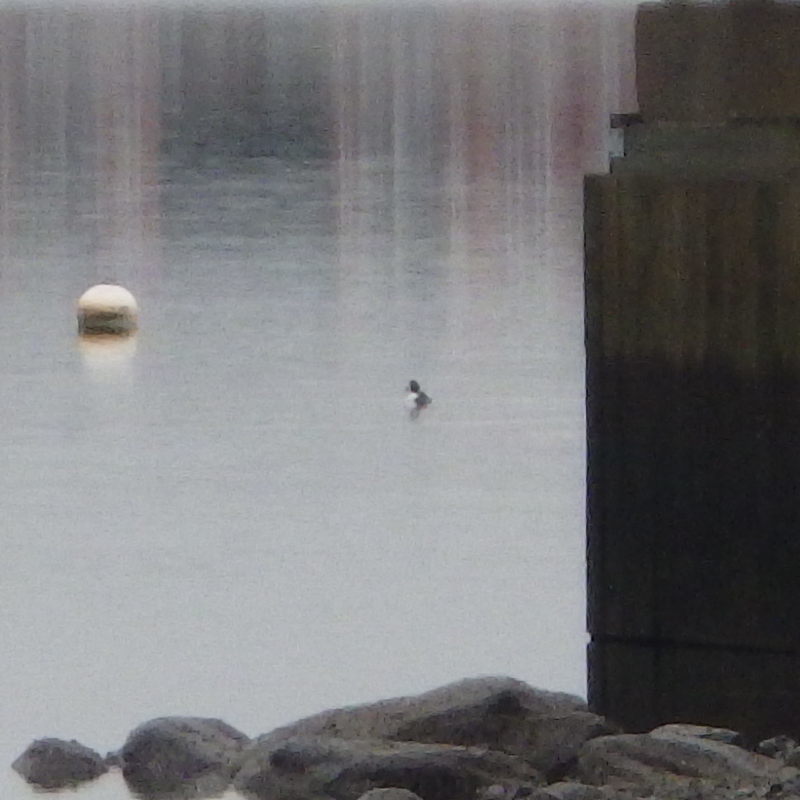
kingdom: Animalia
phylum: Chordata
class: Aves
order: Anseriformes
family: Anatidae
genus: Bucephala
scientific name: Bucephala clangula
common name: Common goldeneye
